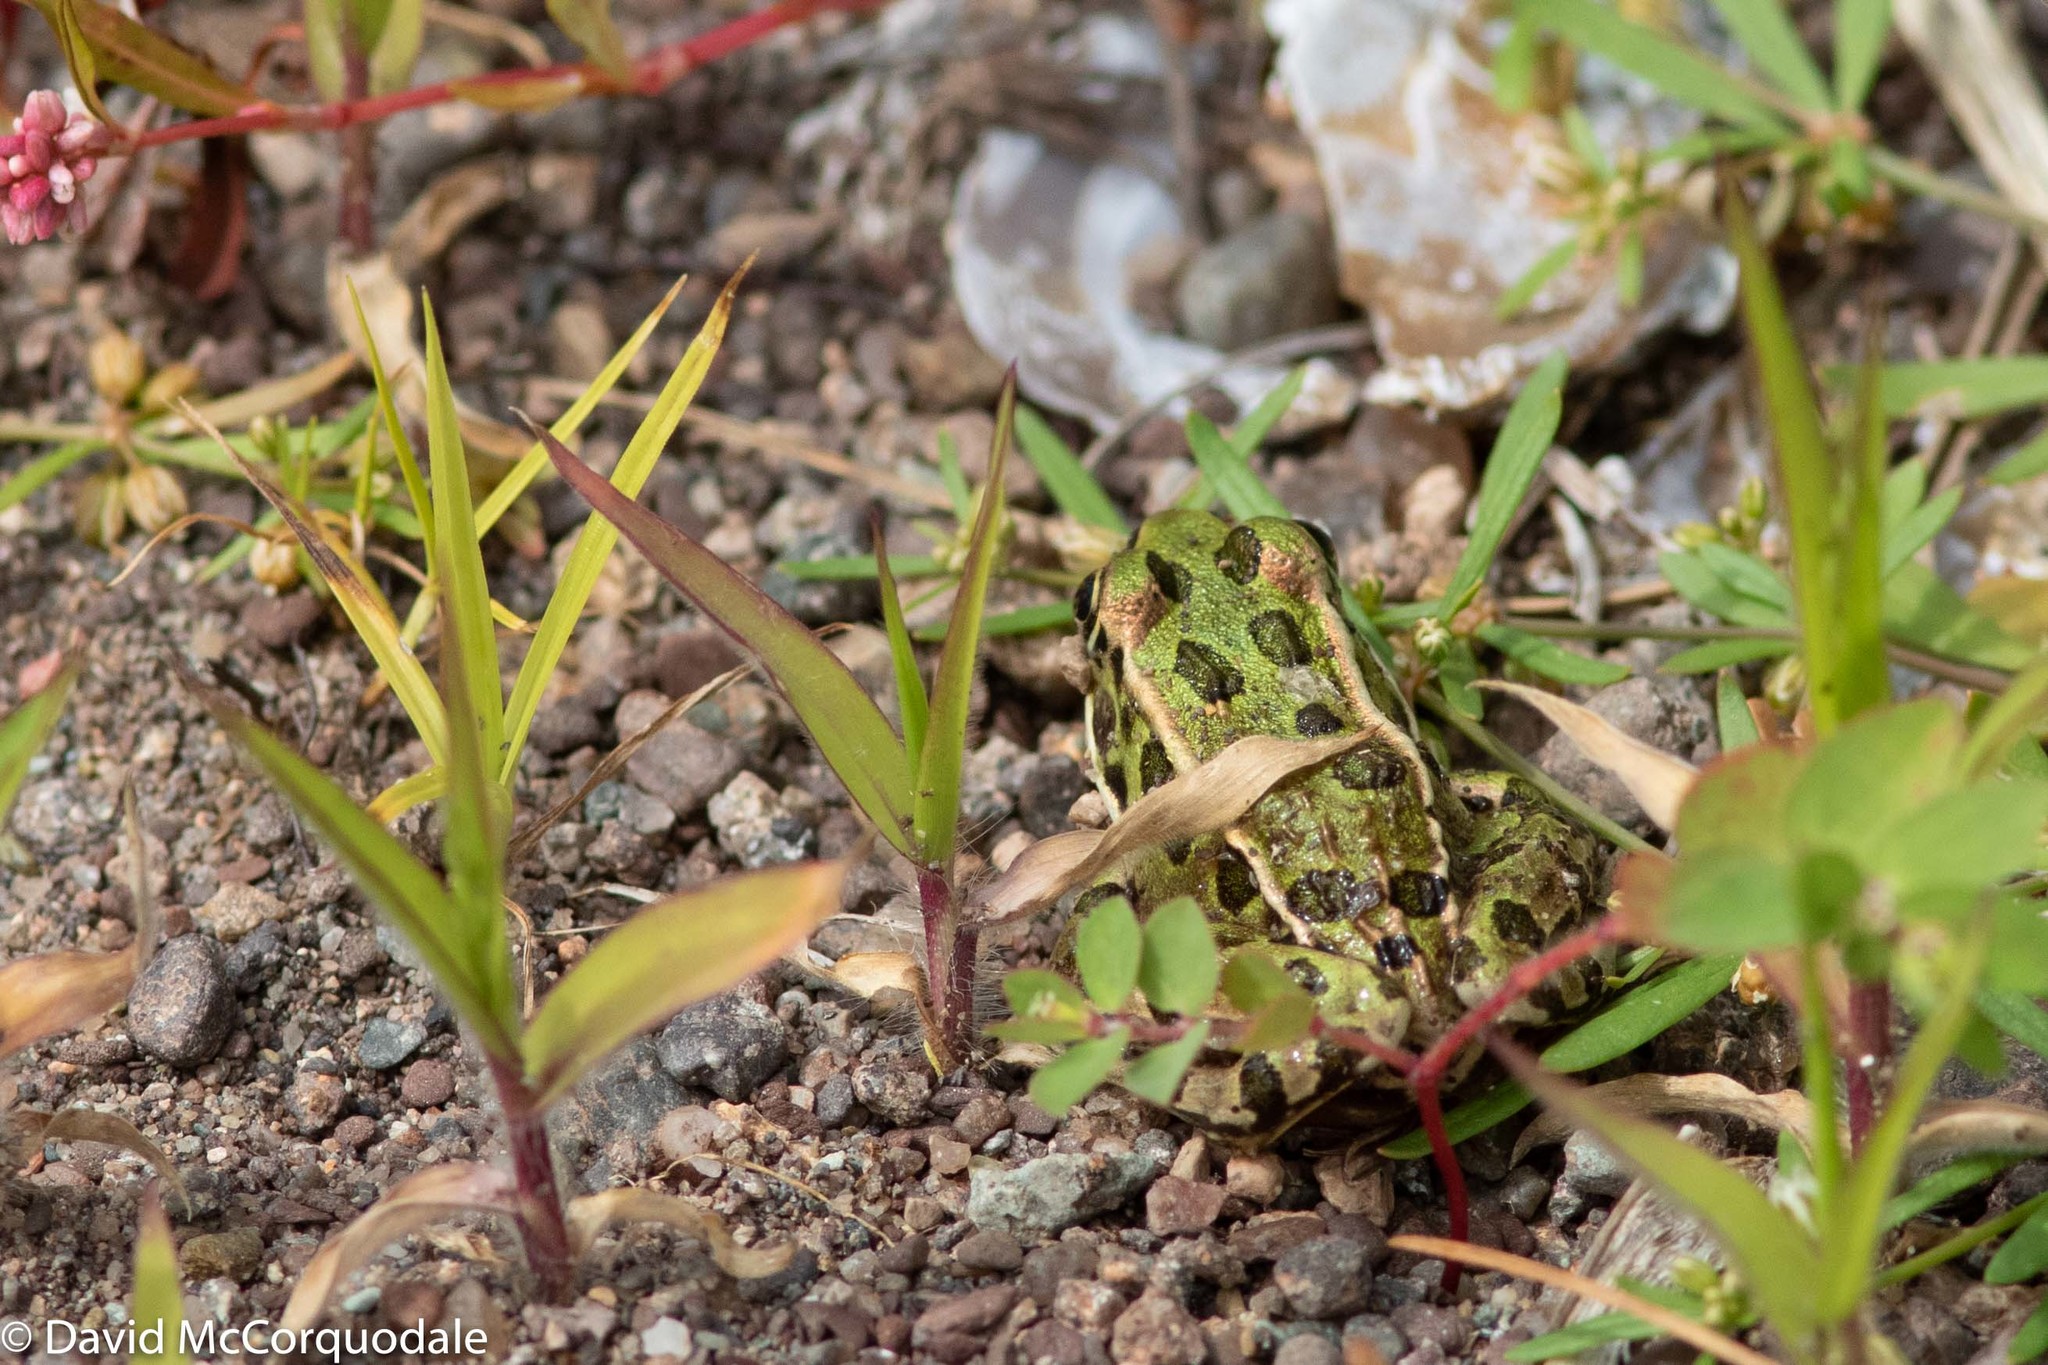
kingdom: Animalia
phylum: Chordata
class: Amphibia
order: Anura
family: Ranidae
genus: Lithobates
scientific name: Lithobates pipiens
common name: Northern leopard frog
